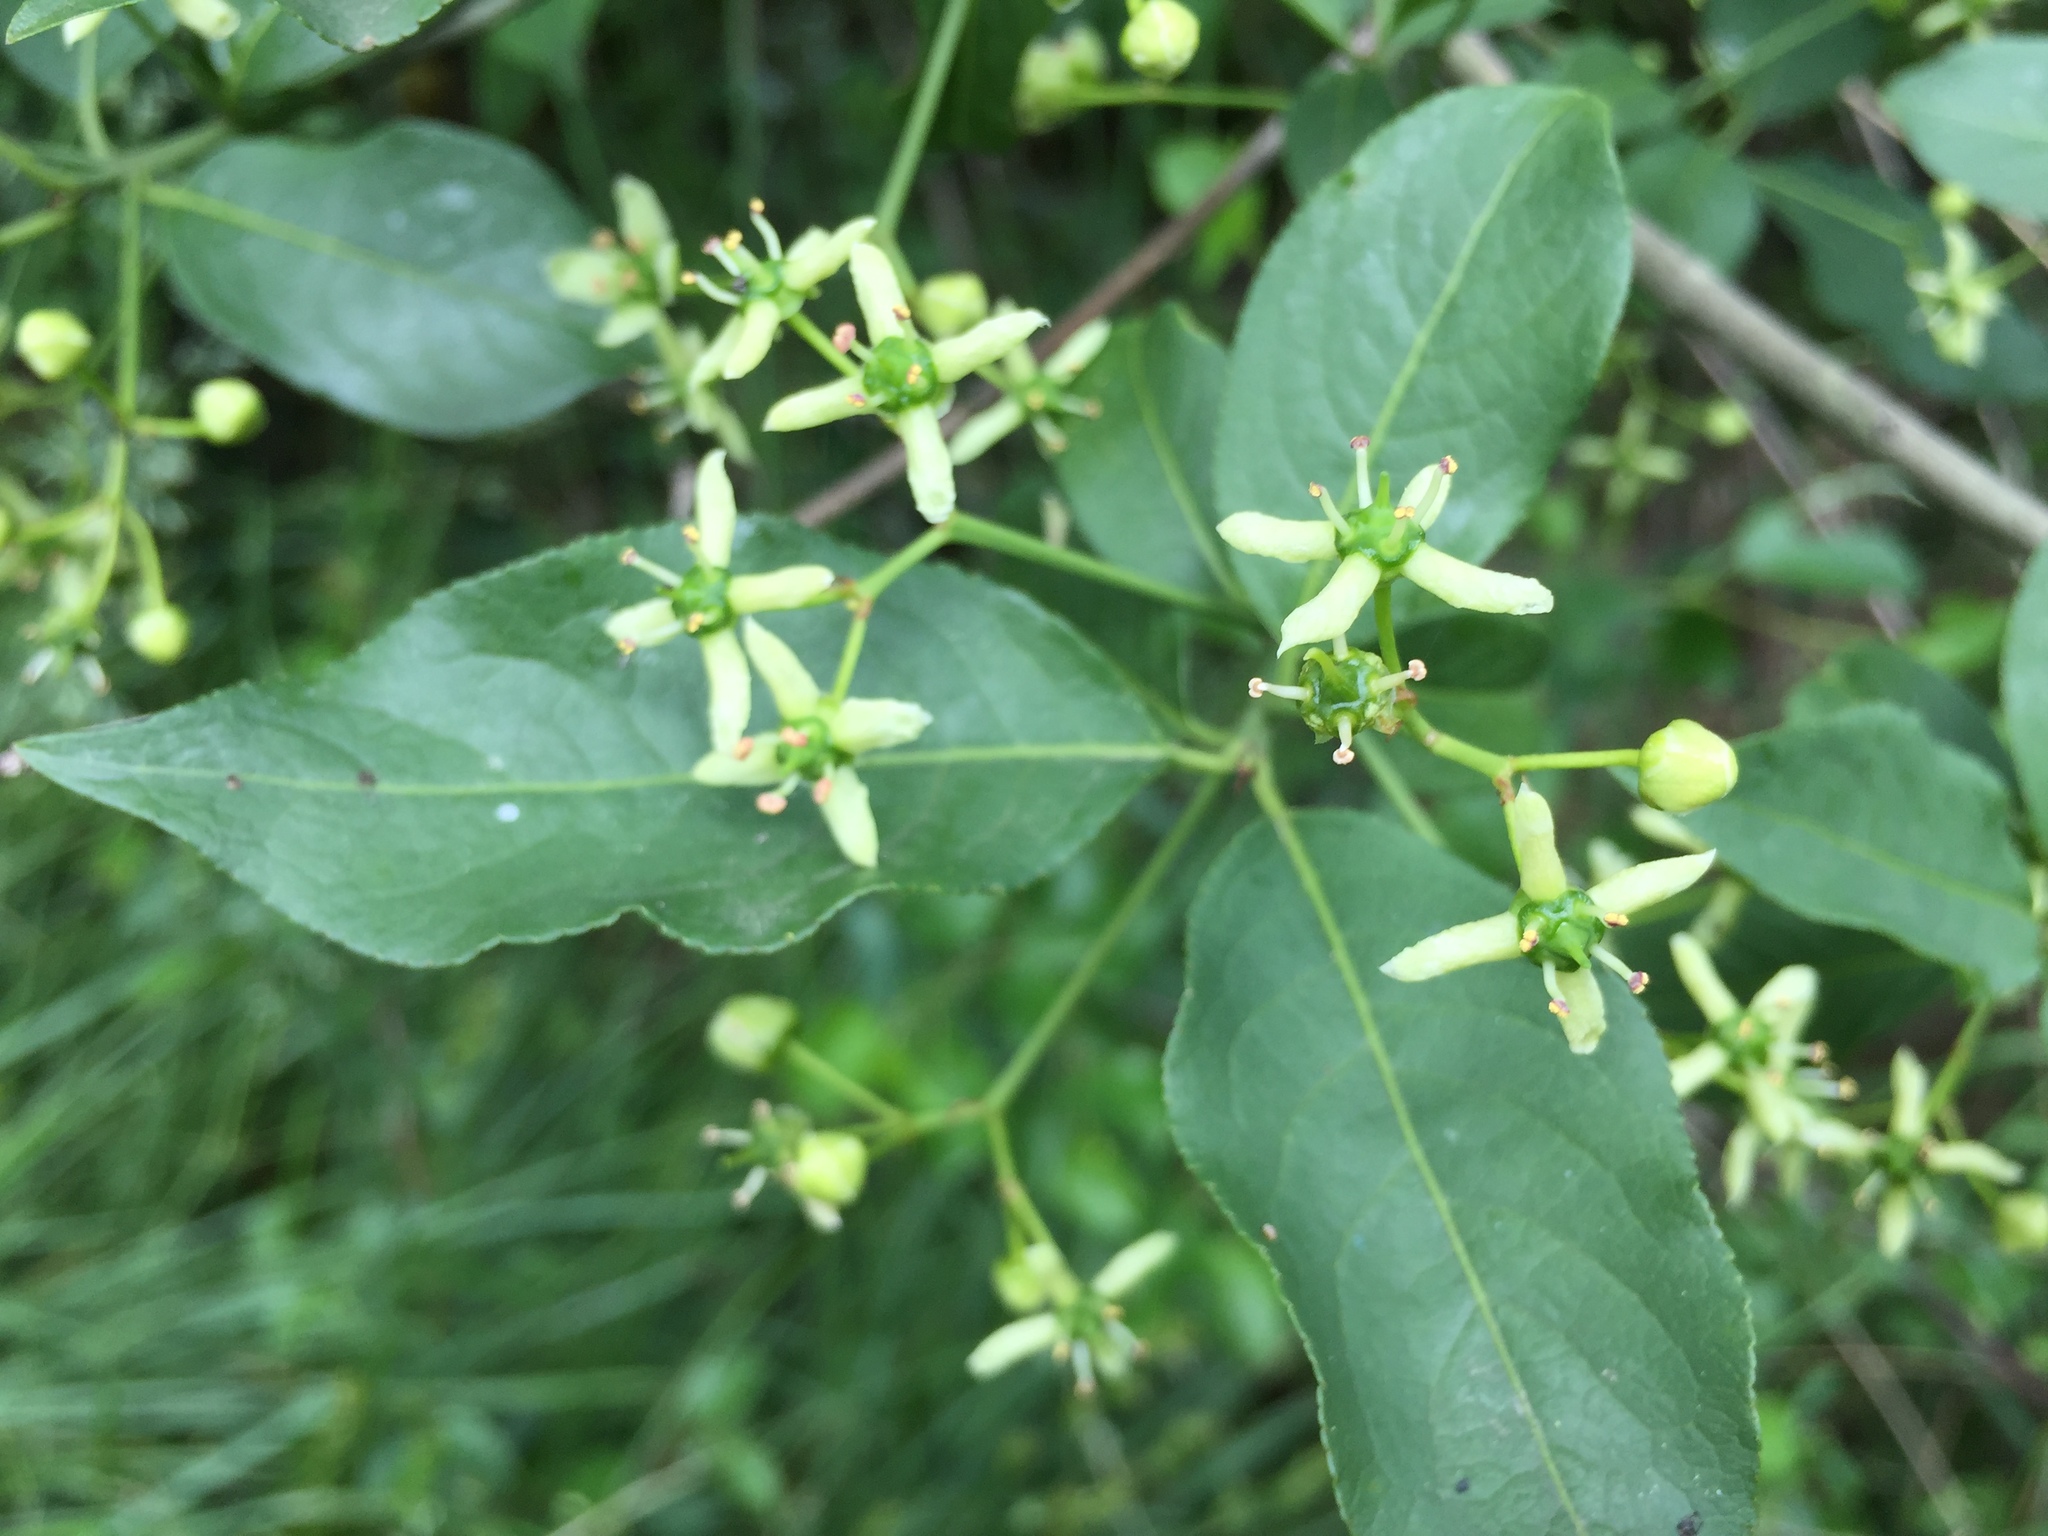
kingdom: Plantae
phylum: Tracheophyta
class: Magnoliopsida
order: Celastrales
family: Celastraceae
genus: Euonymus
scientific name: Euonymus europaeus
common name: Spindle
